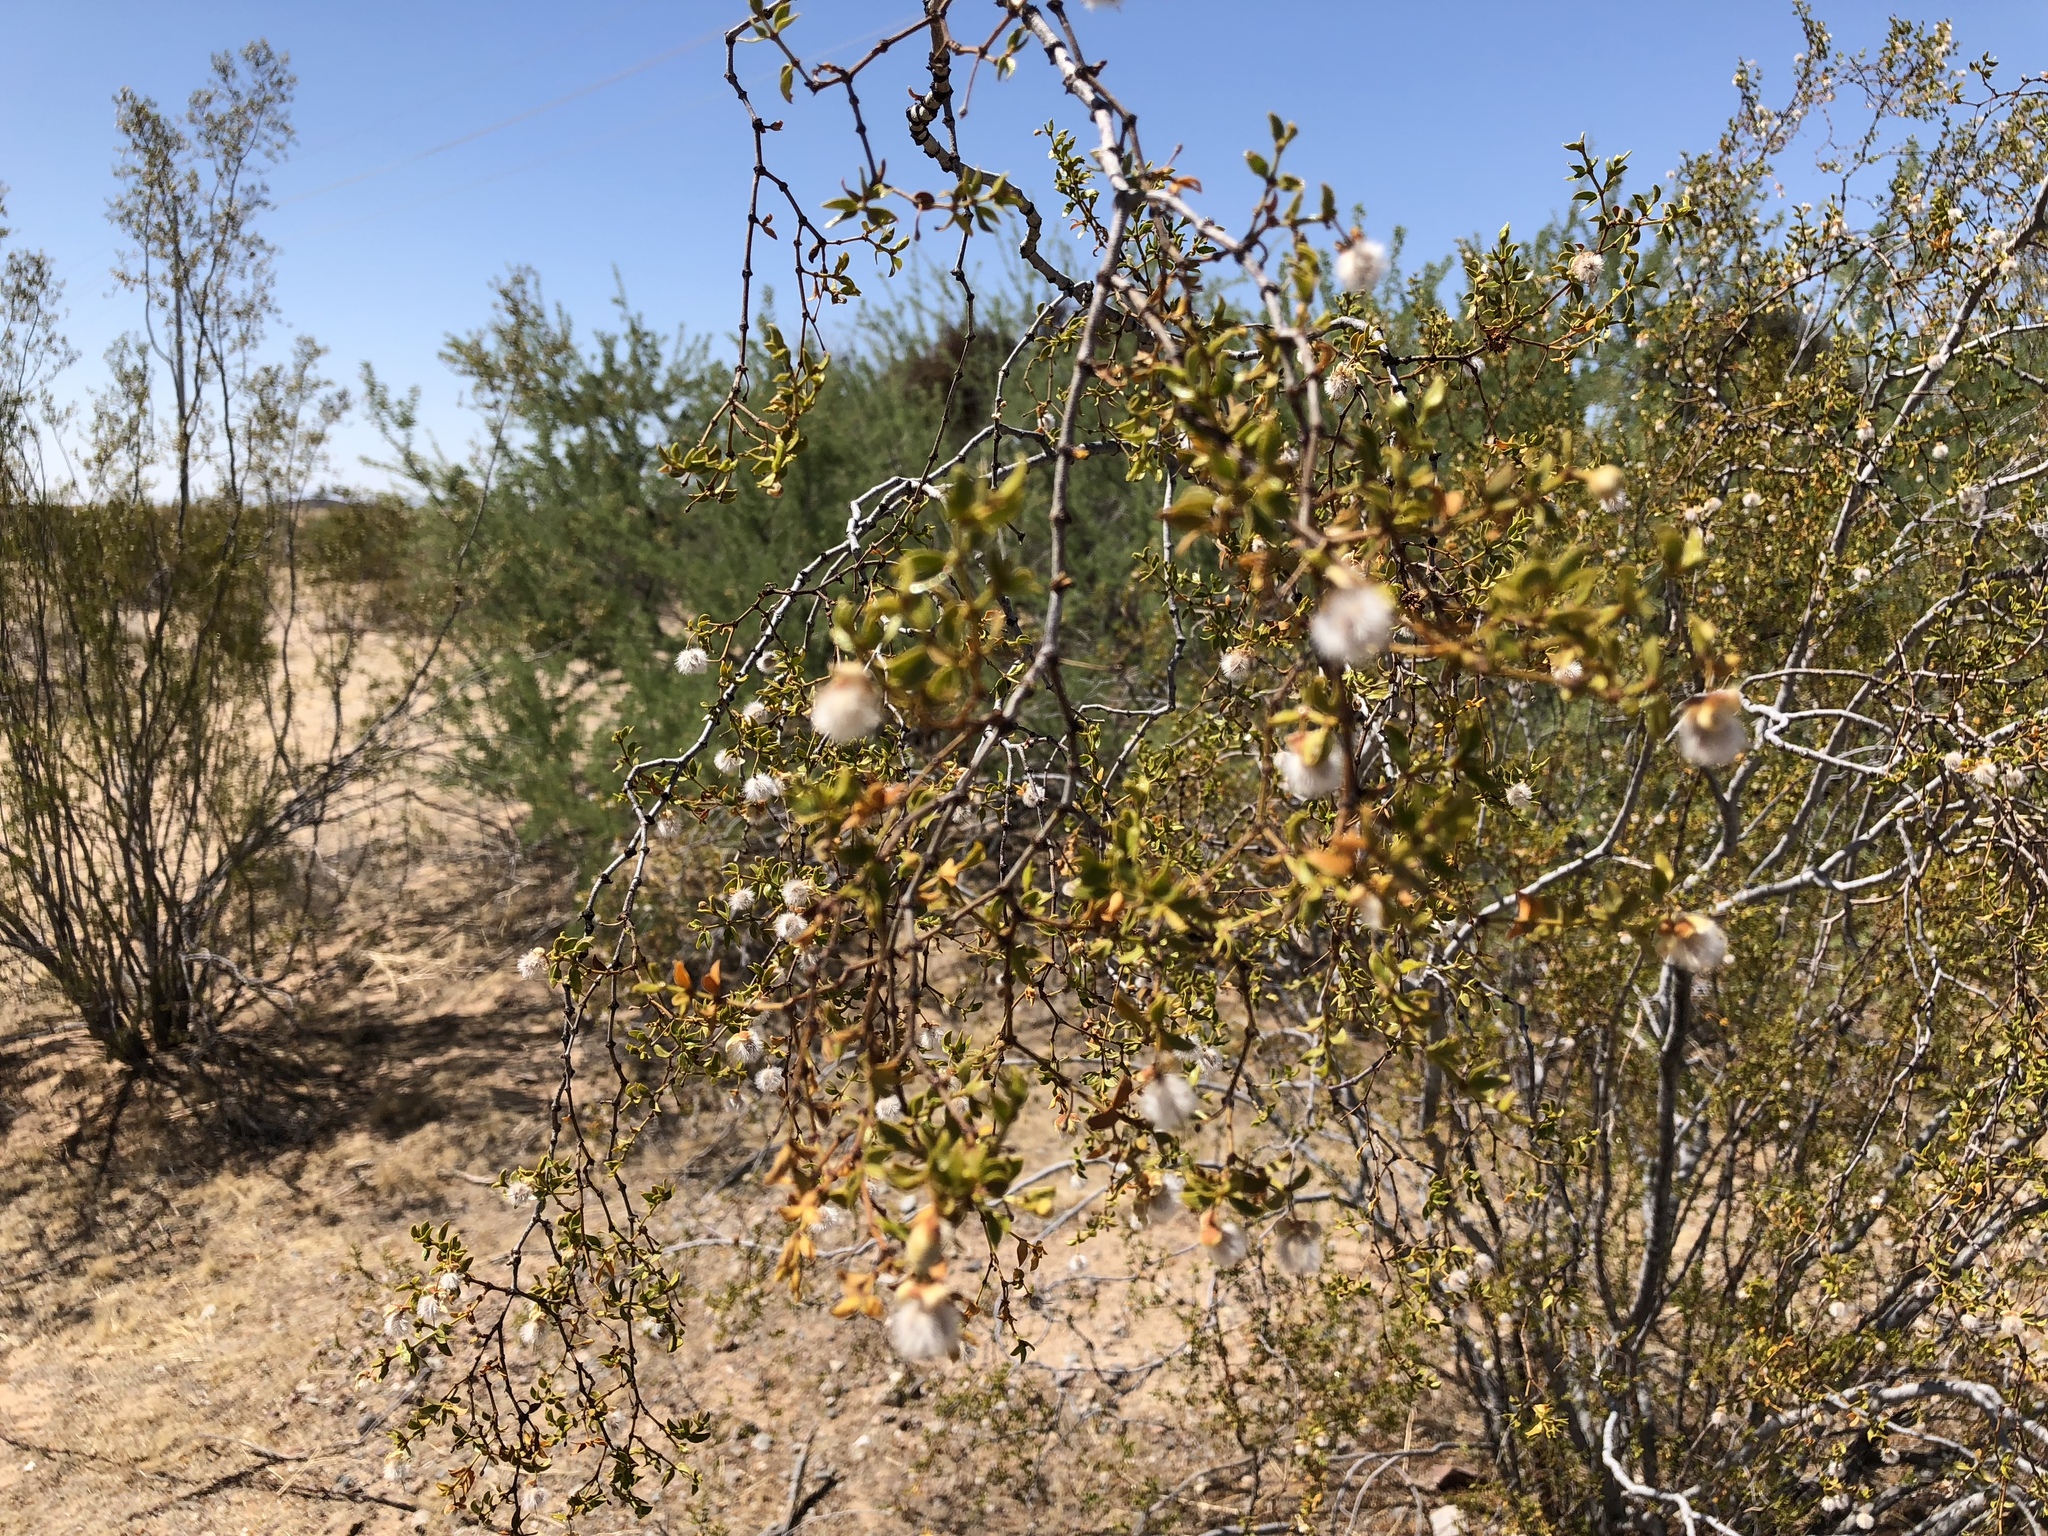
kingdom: Plantae
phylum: Tracheophyta
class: Magnoliopsida
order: Zygophyllales
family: Zygophyllaceae
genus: Larrea
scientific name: Larrea tridentata
